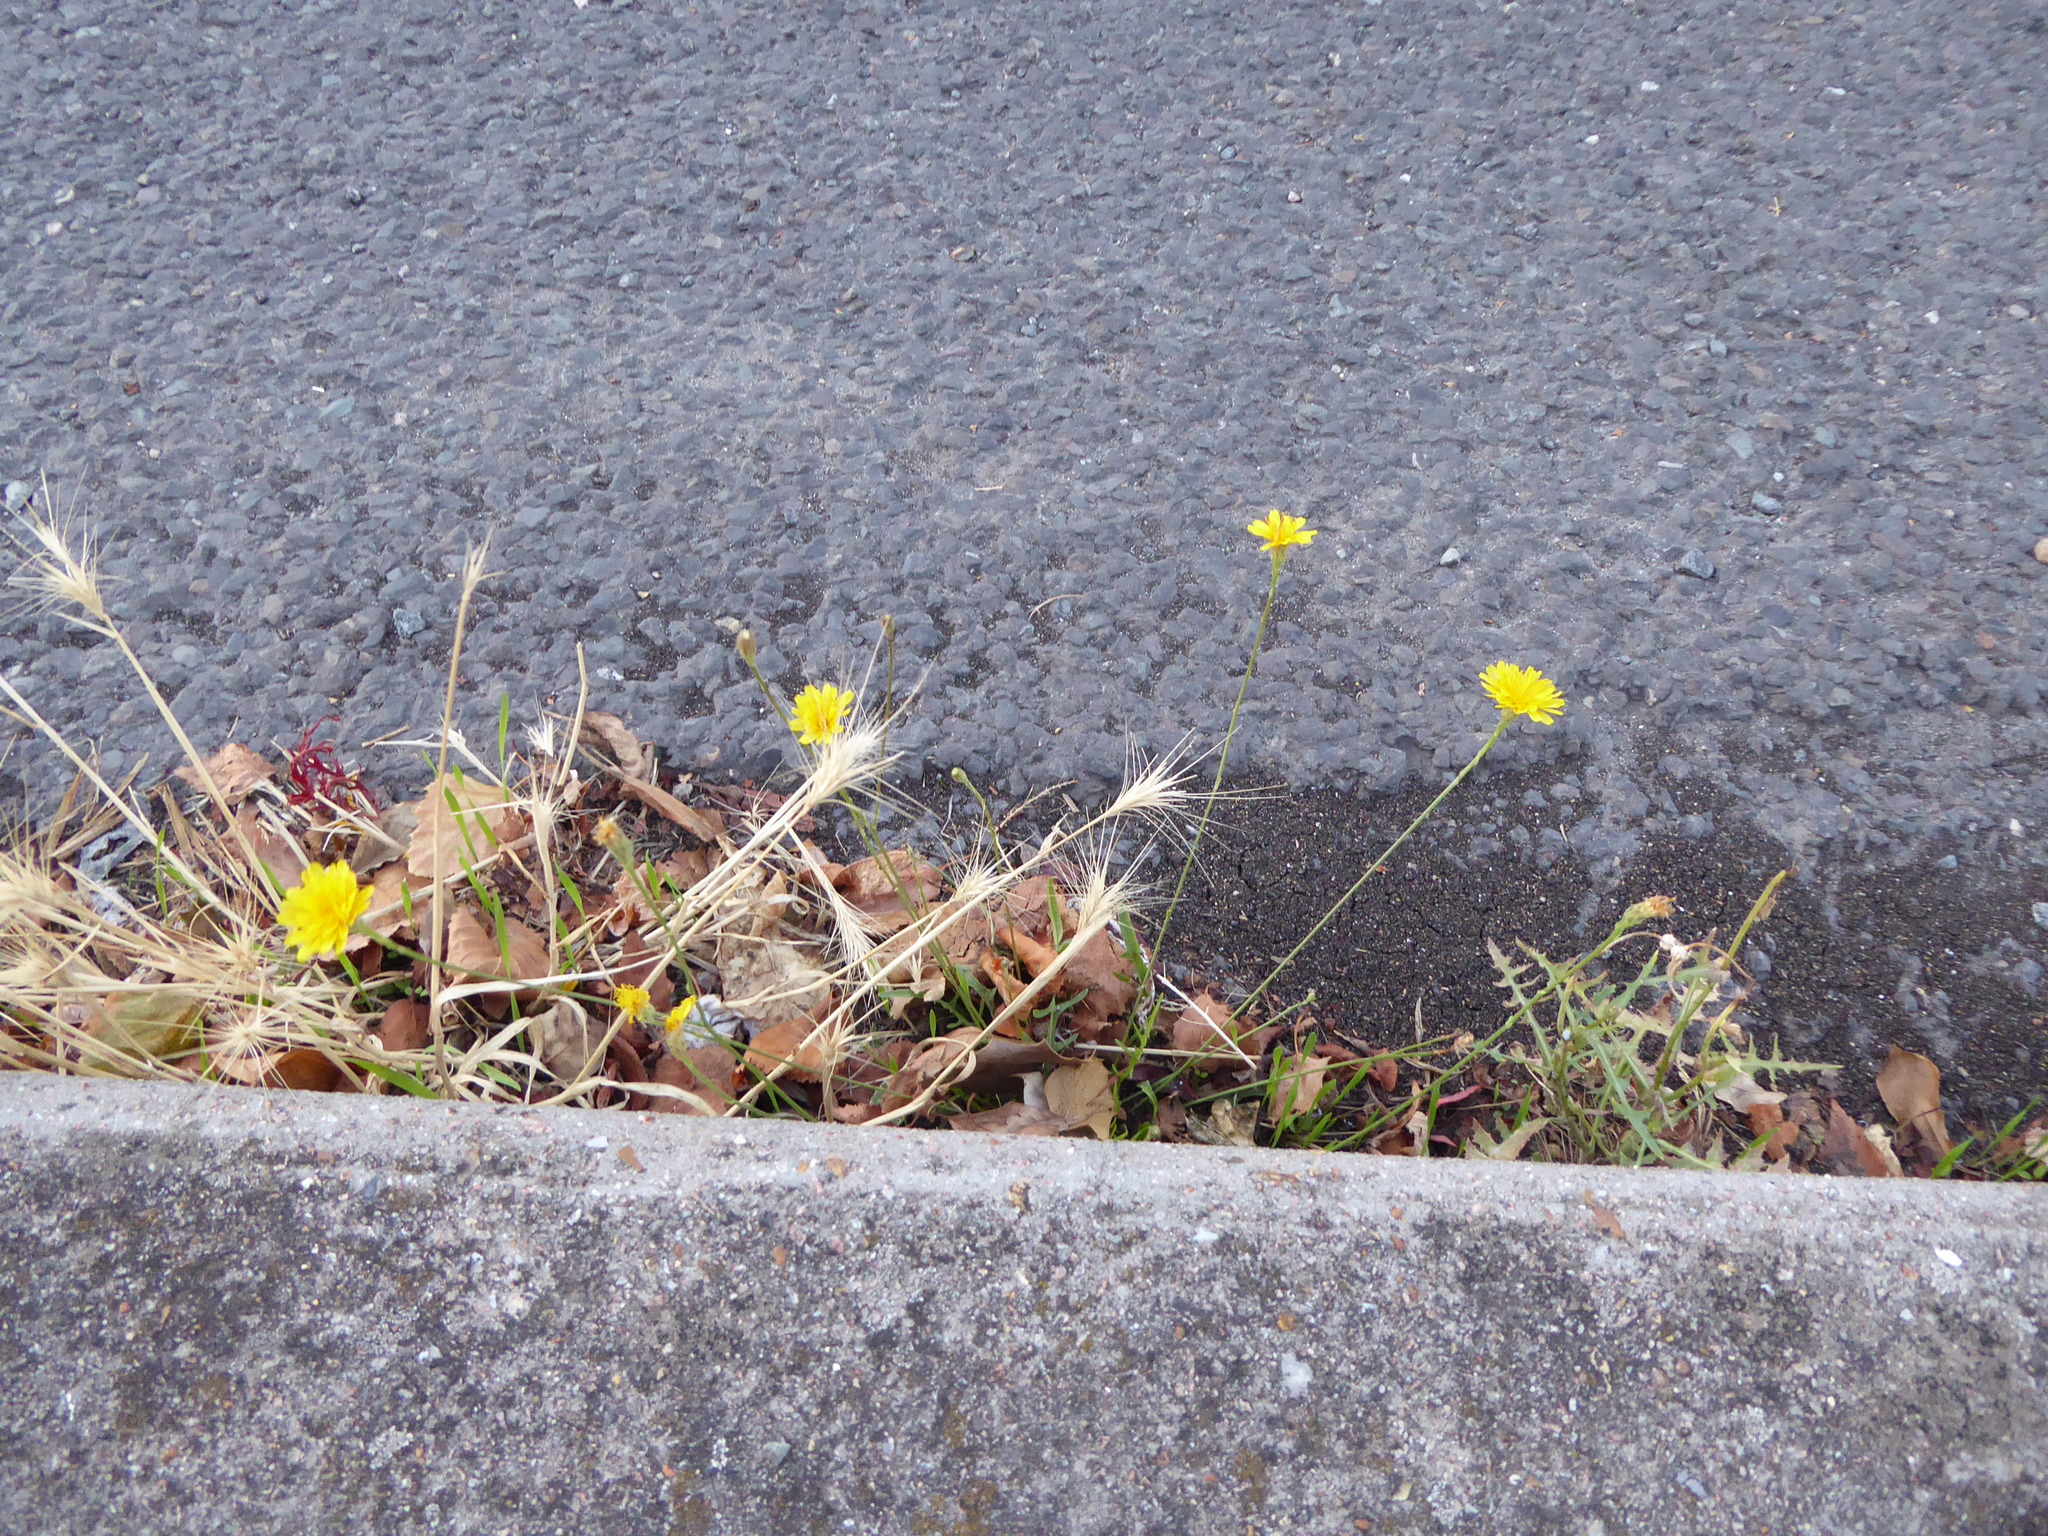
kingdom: Plantae
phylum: Tracheophyta
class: Magnoliopsida
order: Asterales
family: Asteraceae
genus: Scorzoneroides
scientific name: Scorzoneroides autumnalis
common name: Autumn hawkbit
